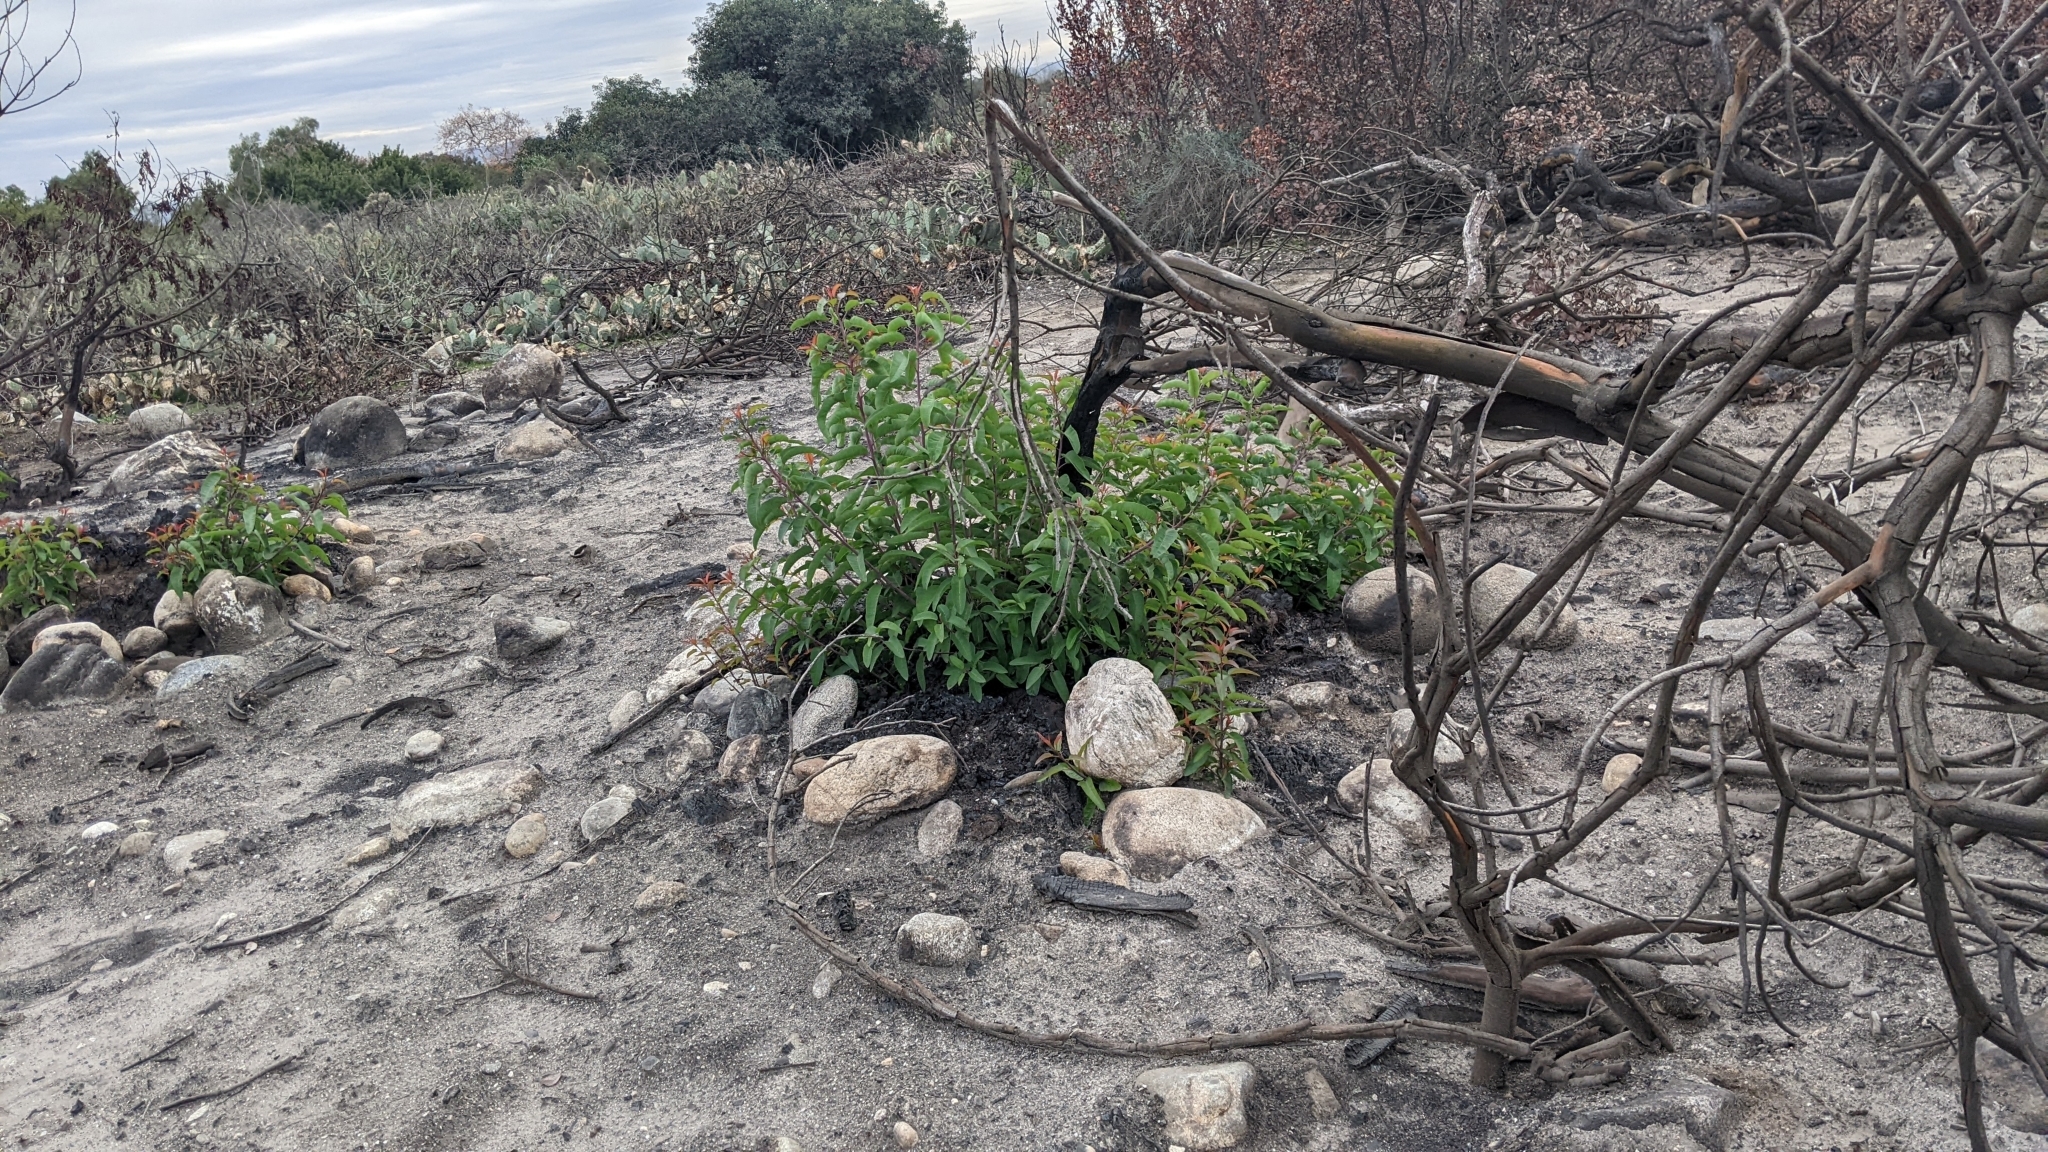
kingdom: Plantae
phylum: Tracheophyta
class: Magnoliopsida
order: Sapindales
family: Anacardiaceae
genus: Malosma
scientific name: Malosma laurina
